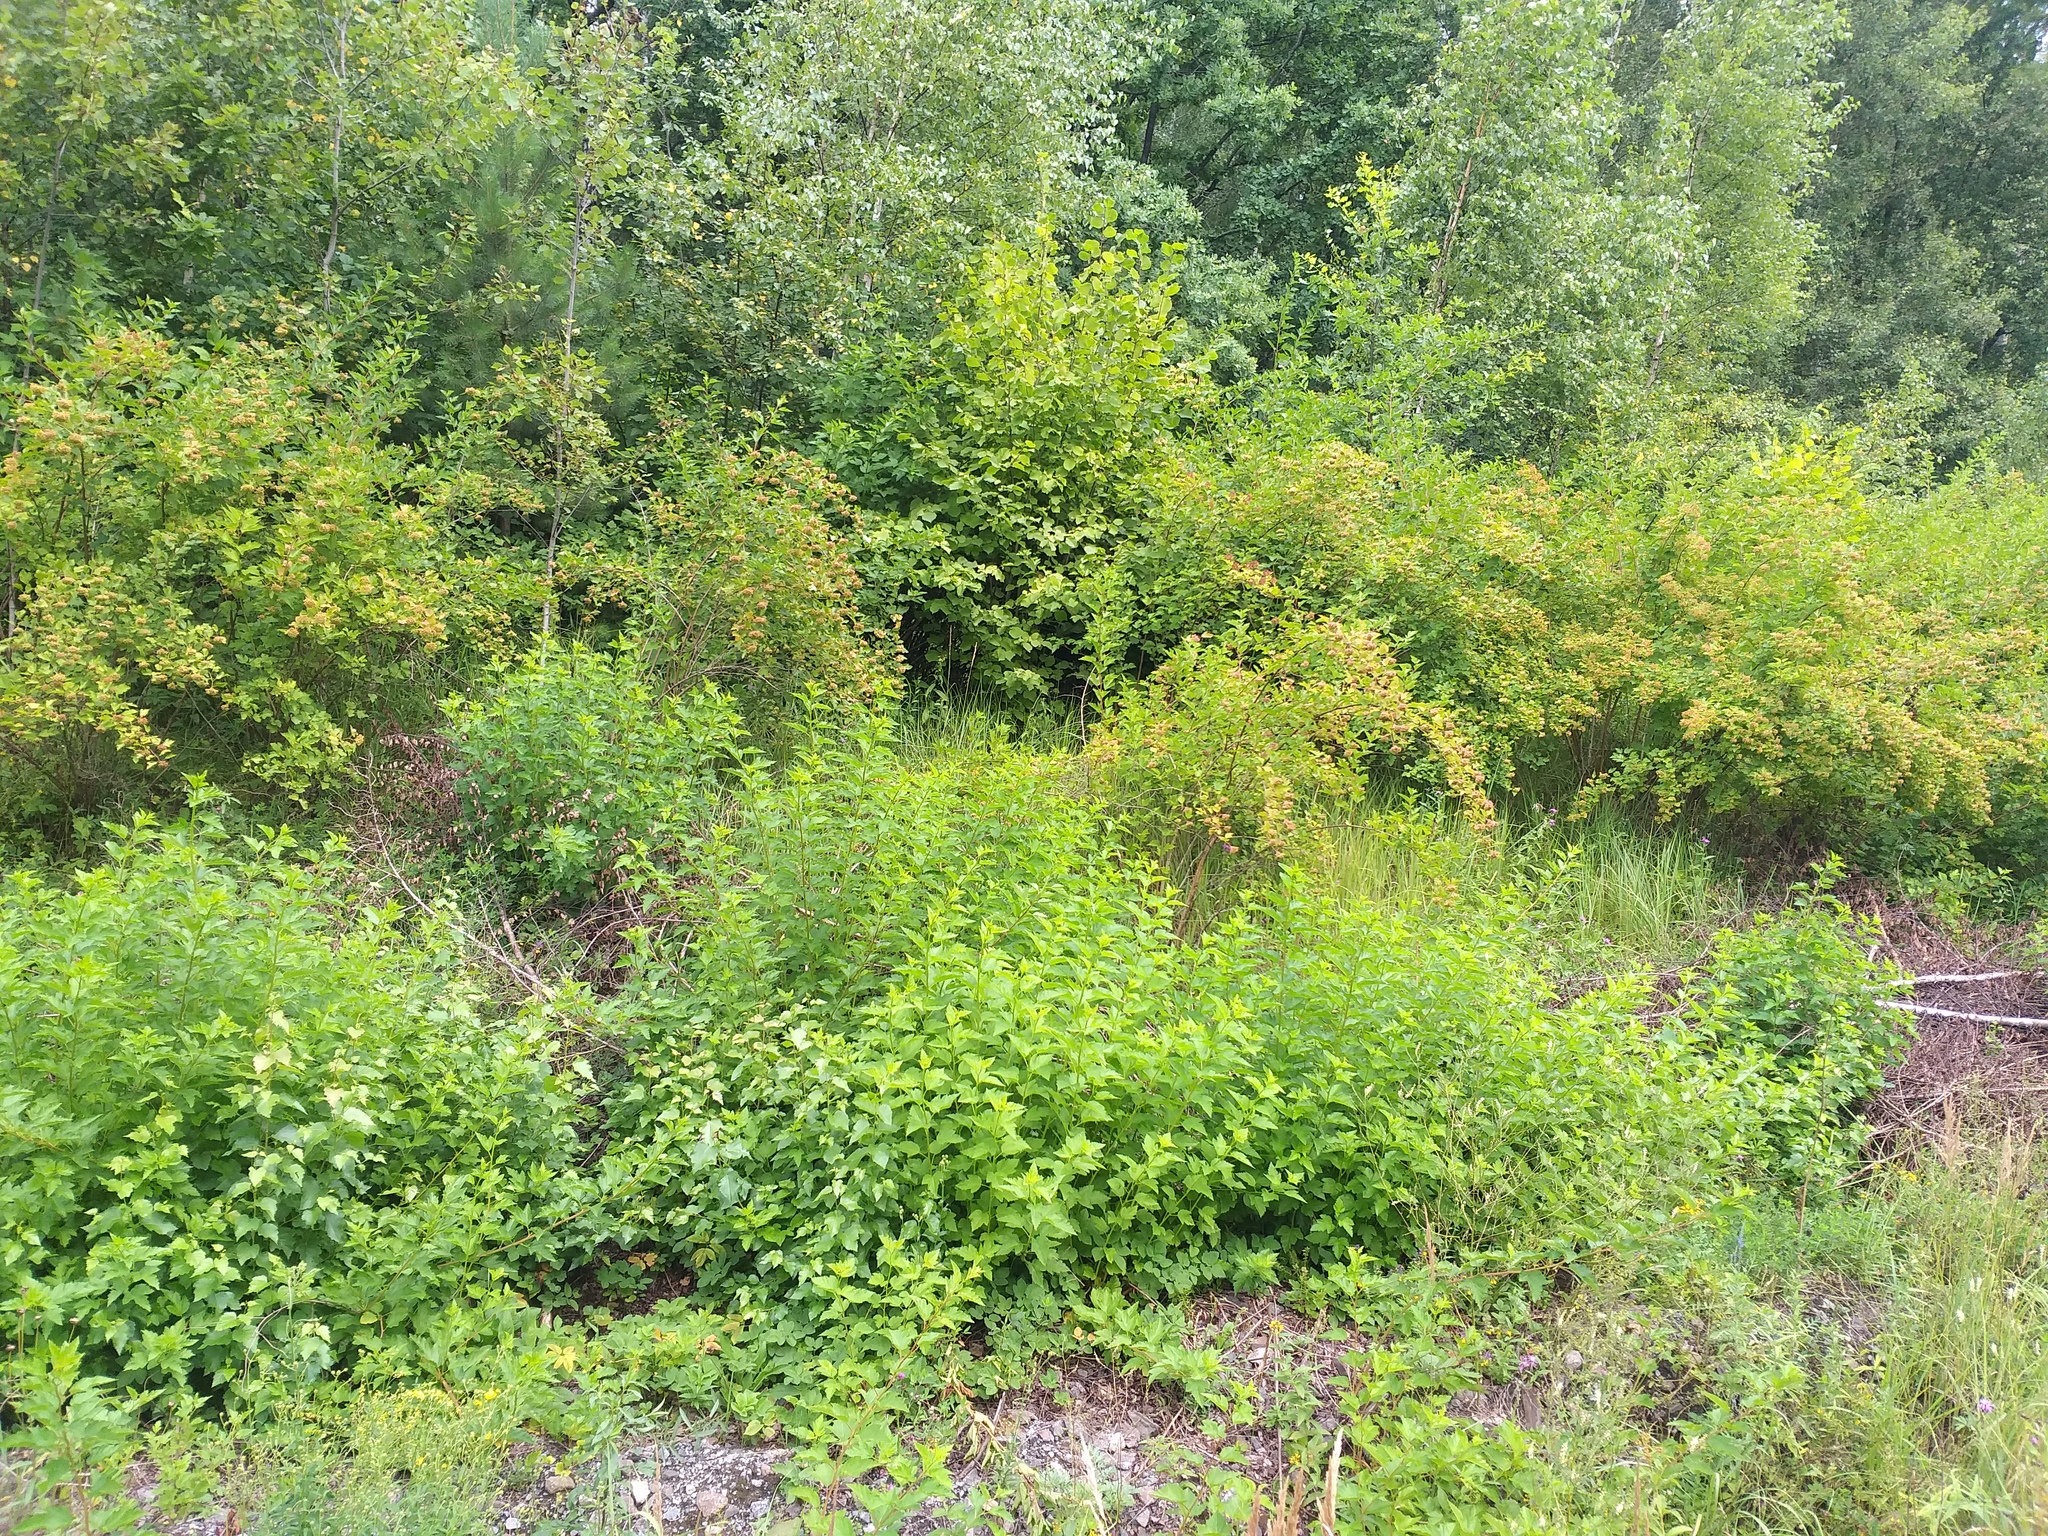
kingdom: Plantae
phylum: Tracheophyta
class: Magnoliopsida
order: Rosales
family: Rosaceae
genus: Physocarpus
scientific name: Physocarpus opulifolius
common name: Ninebark
